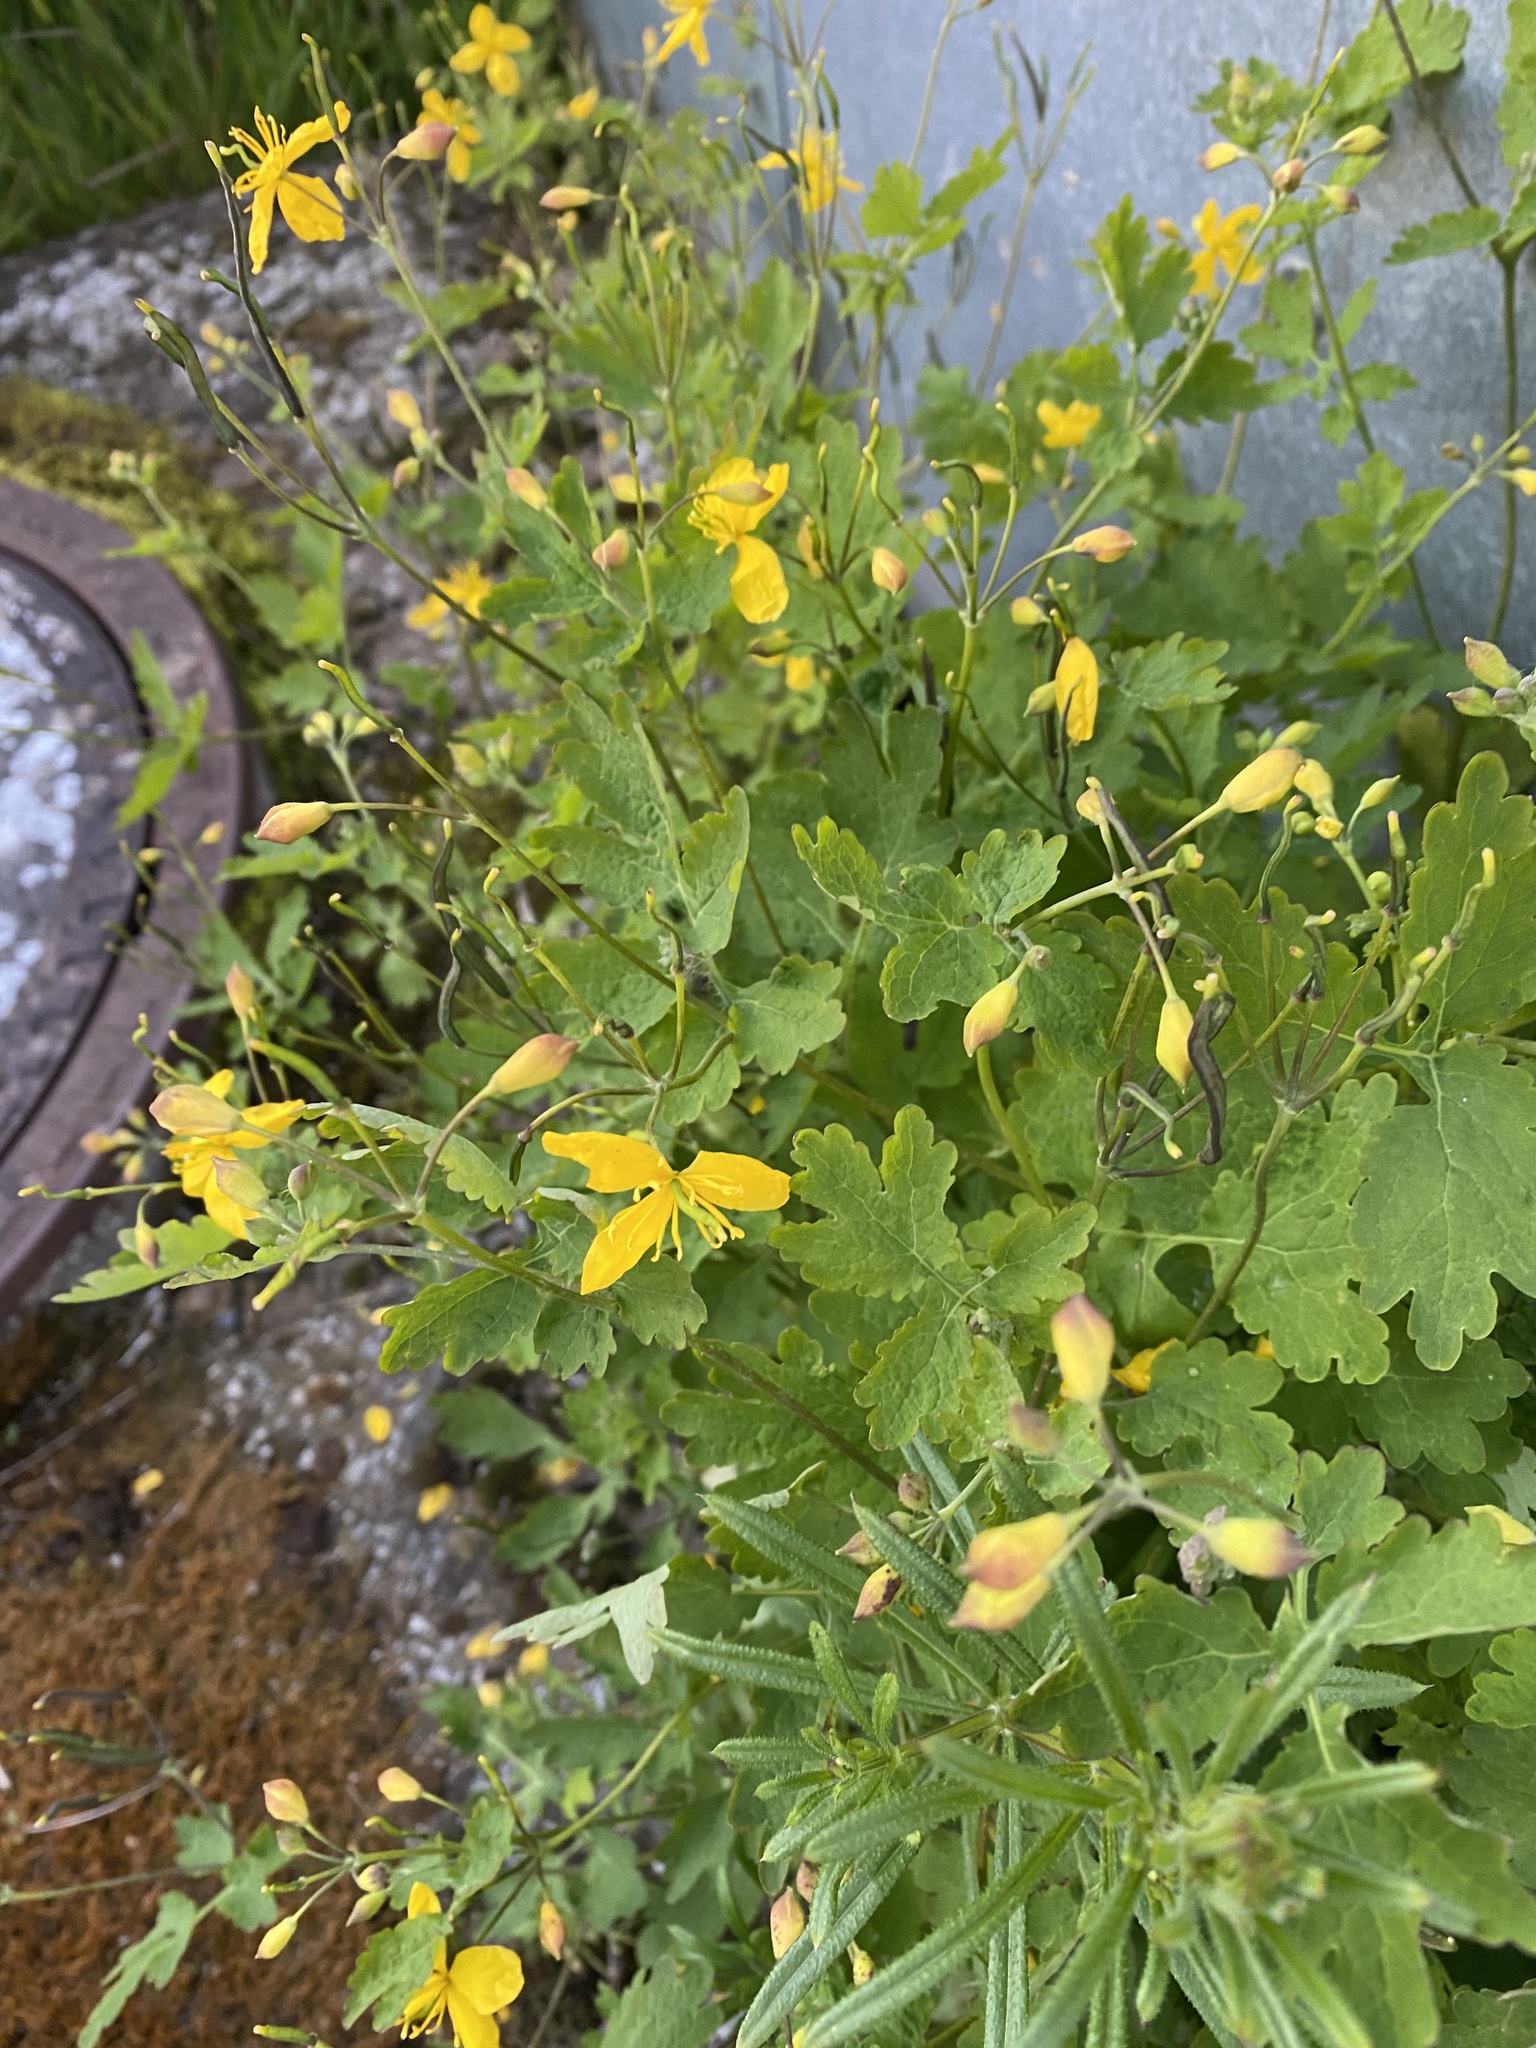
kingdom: Plantae
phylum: Tracheophyta
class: Magnoliopsida
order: Ranunculales
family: Papaveraceae
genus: Chelidonium
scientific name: Chelidonium majus
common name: Greater celandine
